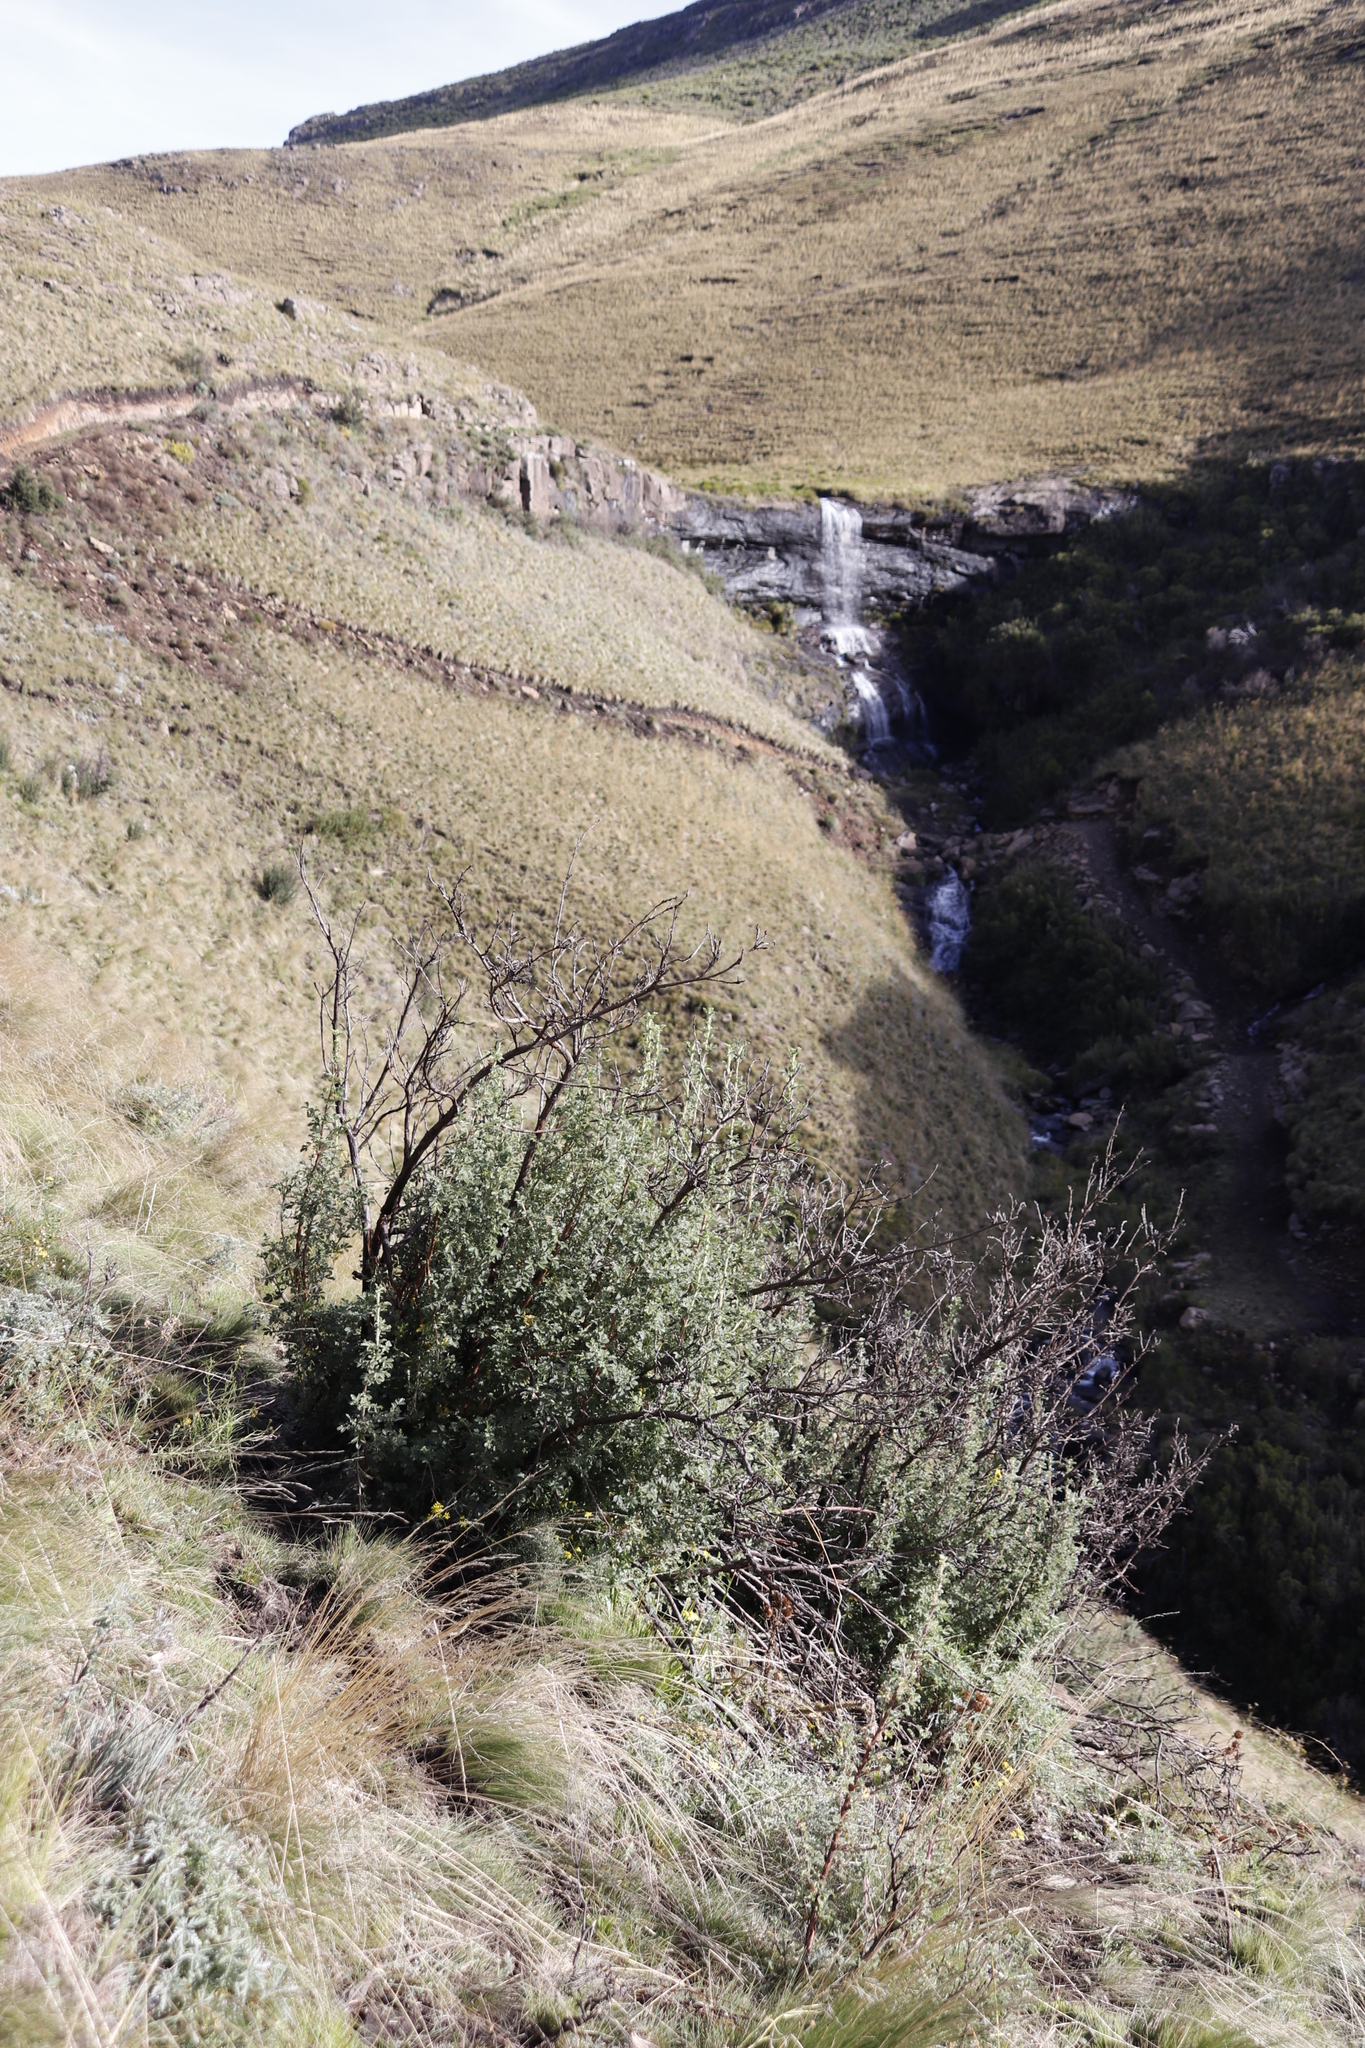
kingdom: Plantae
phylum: Tracheophyta
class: Magnoliopsida
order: Rosales
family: Rosaceae
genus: Leucosidea
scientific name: Leucosidea sericea
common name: Oldwood
